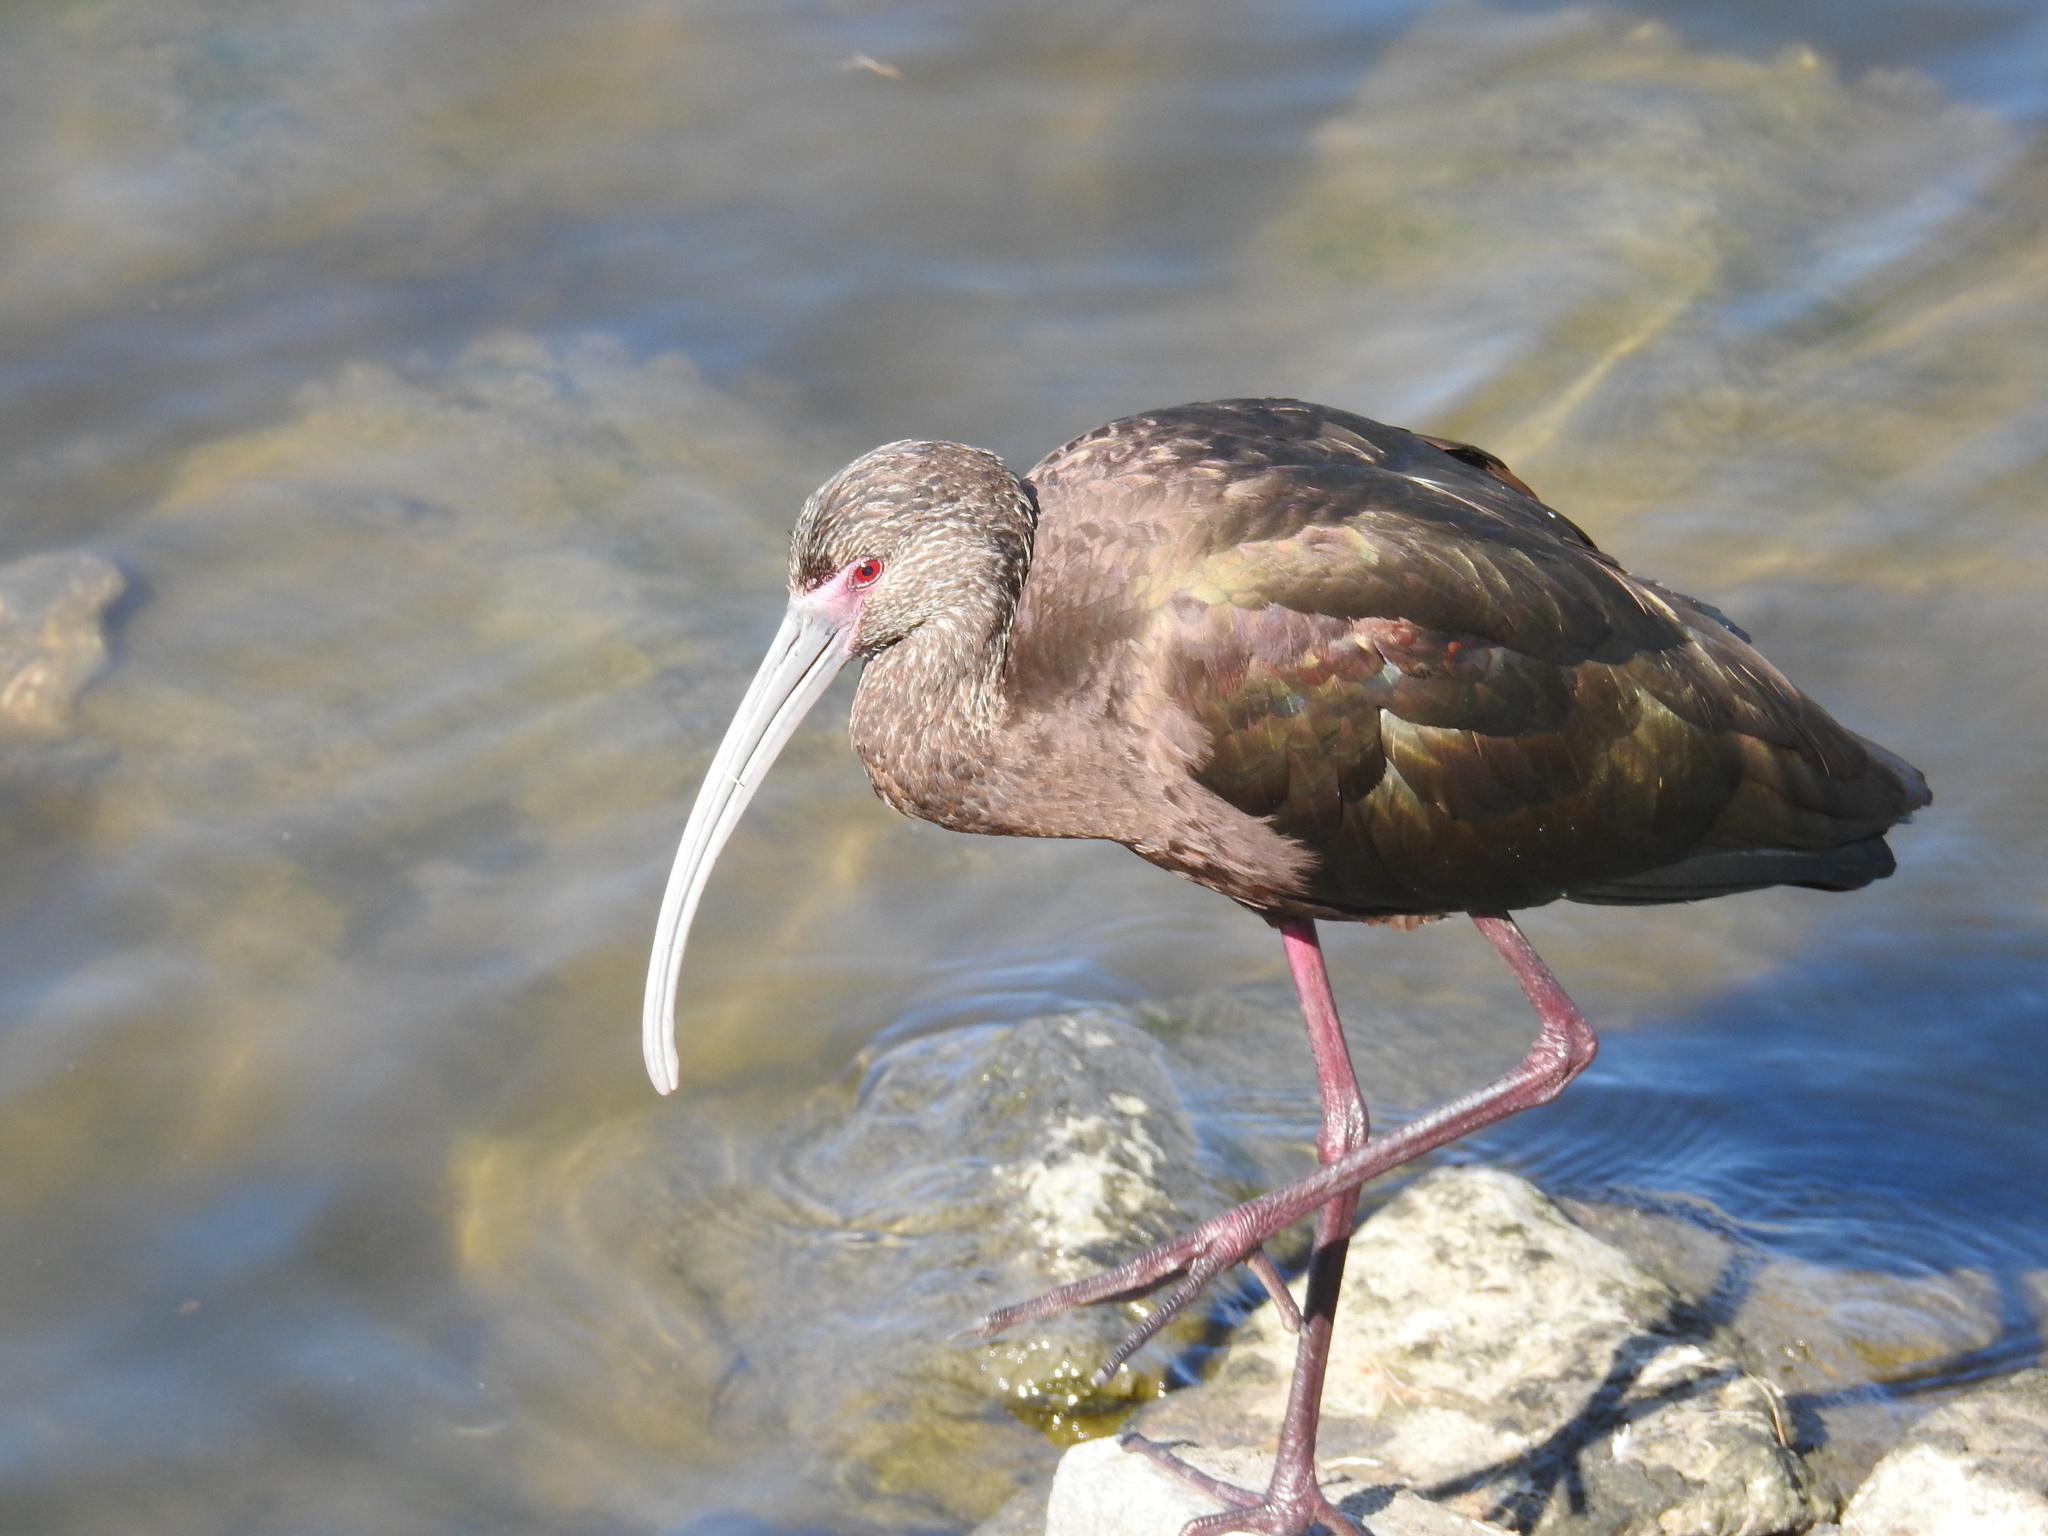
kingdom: Animalia
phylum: Chordata
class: Aves
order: Pelecaniformes
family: Threskiornithidae
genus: Plegadis
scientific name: Plegadis chihi
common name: White-faced ibis
